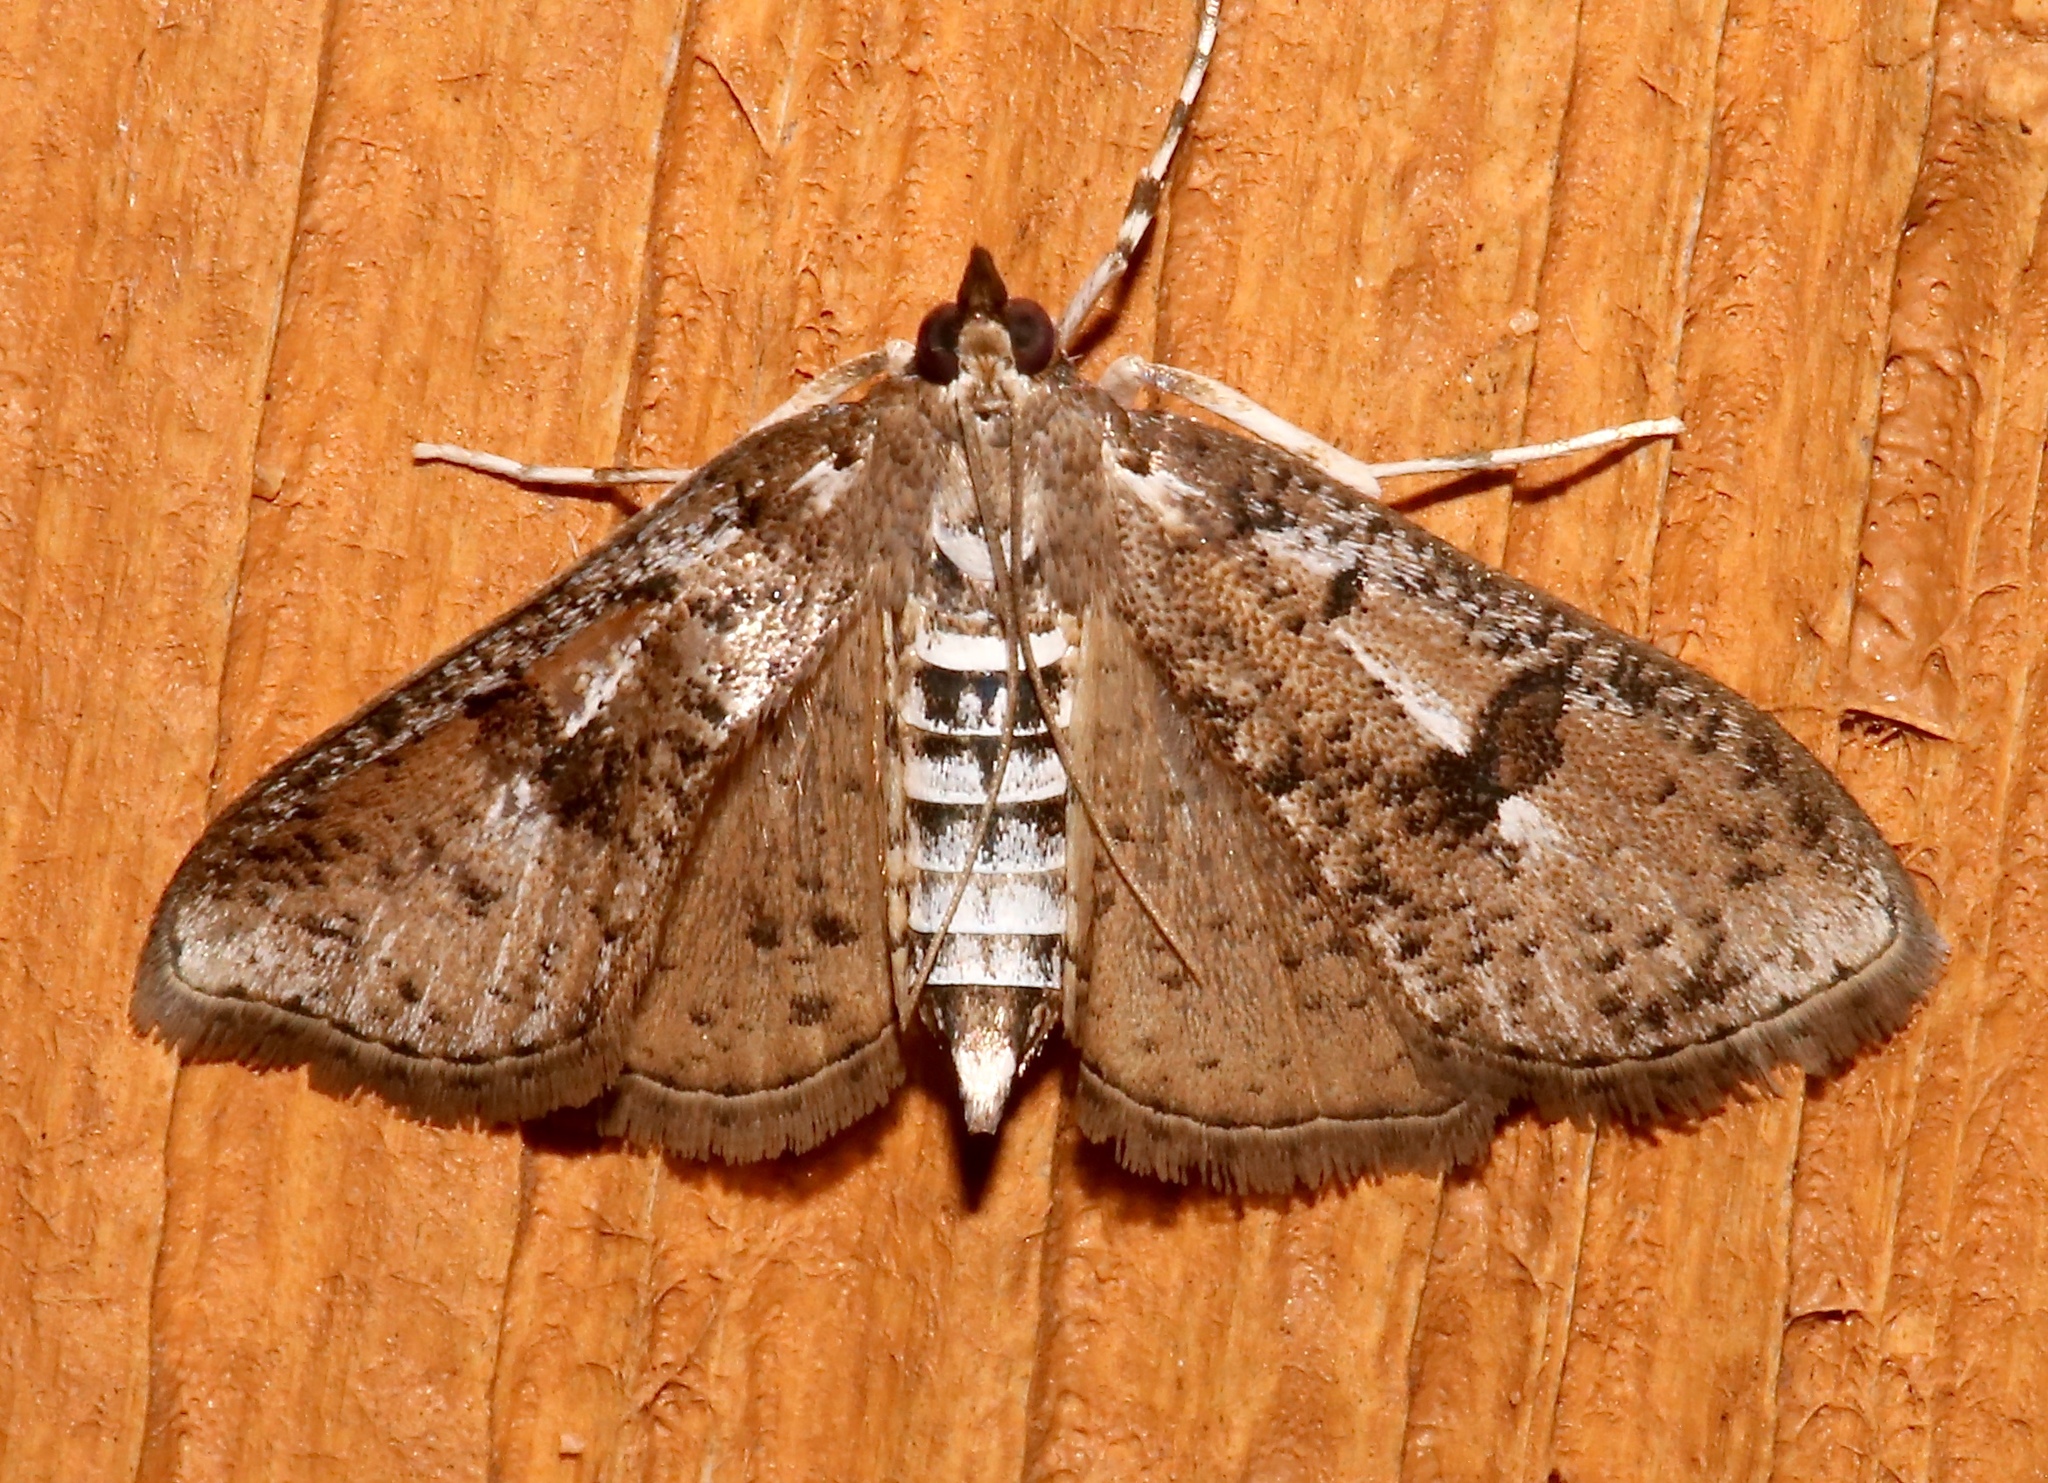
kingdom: Animalia
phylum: Arthropoda
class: Insecta
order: Lepidoptera
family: Crambidae
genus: Palpita
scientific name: Palpita magniferalis
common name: Splendid palpita moth
